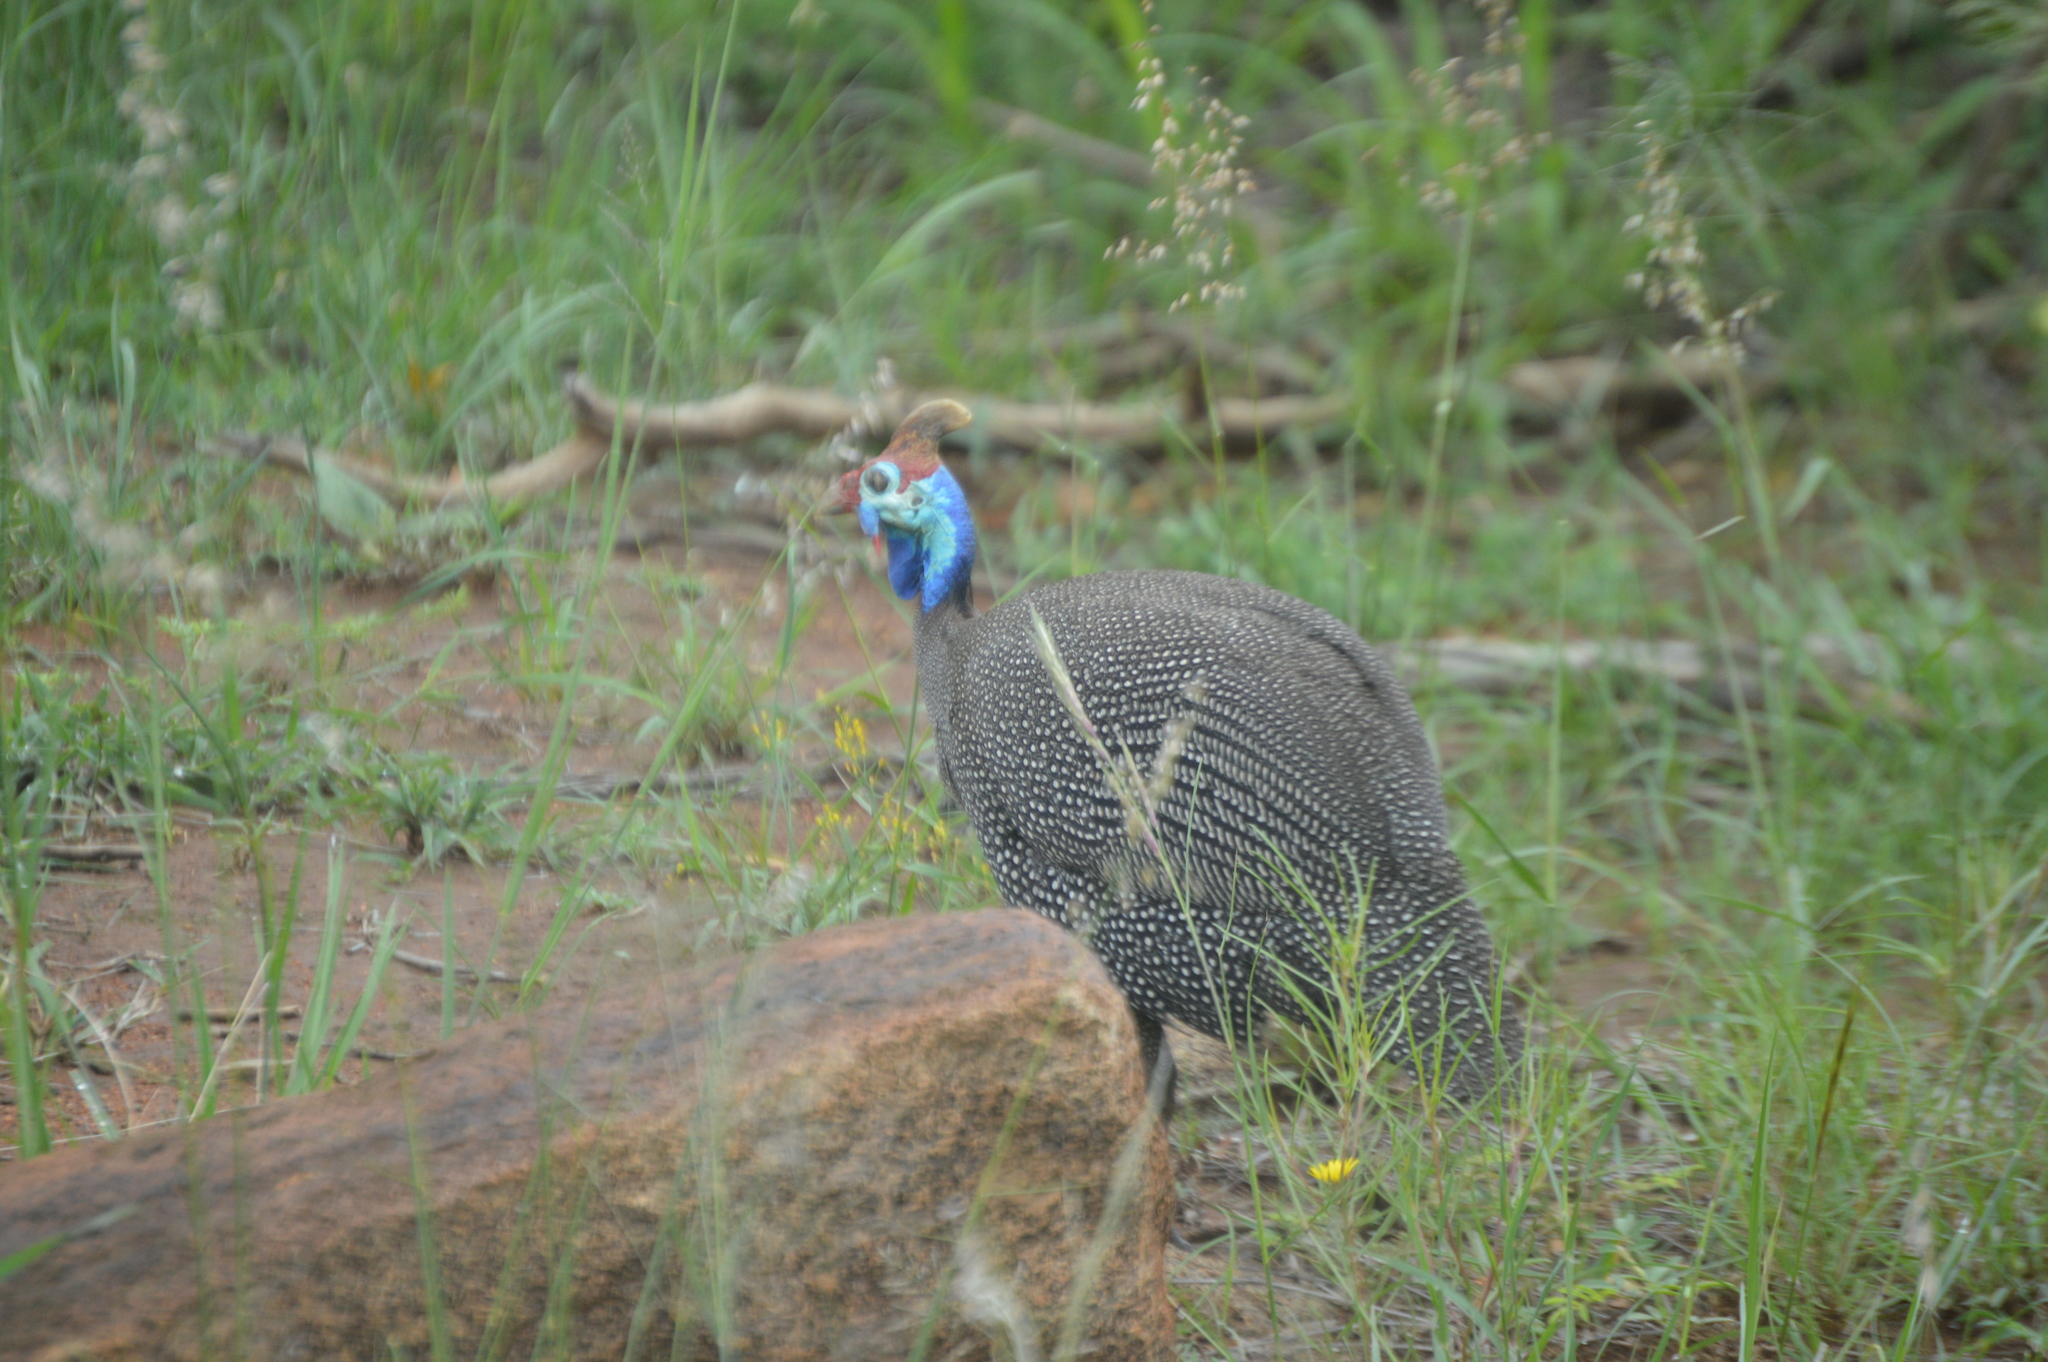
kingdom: Animalia
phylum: Chordata
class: Aves
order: Galliformes
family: Numididae
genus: Numida
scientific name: Numida meleagris
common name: Helmeted guineafowl
